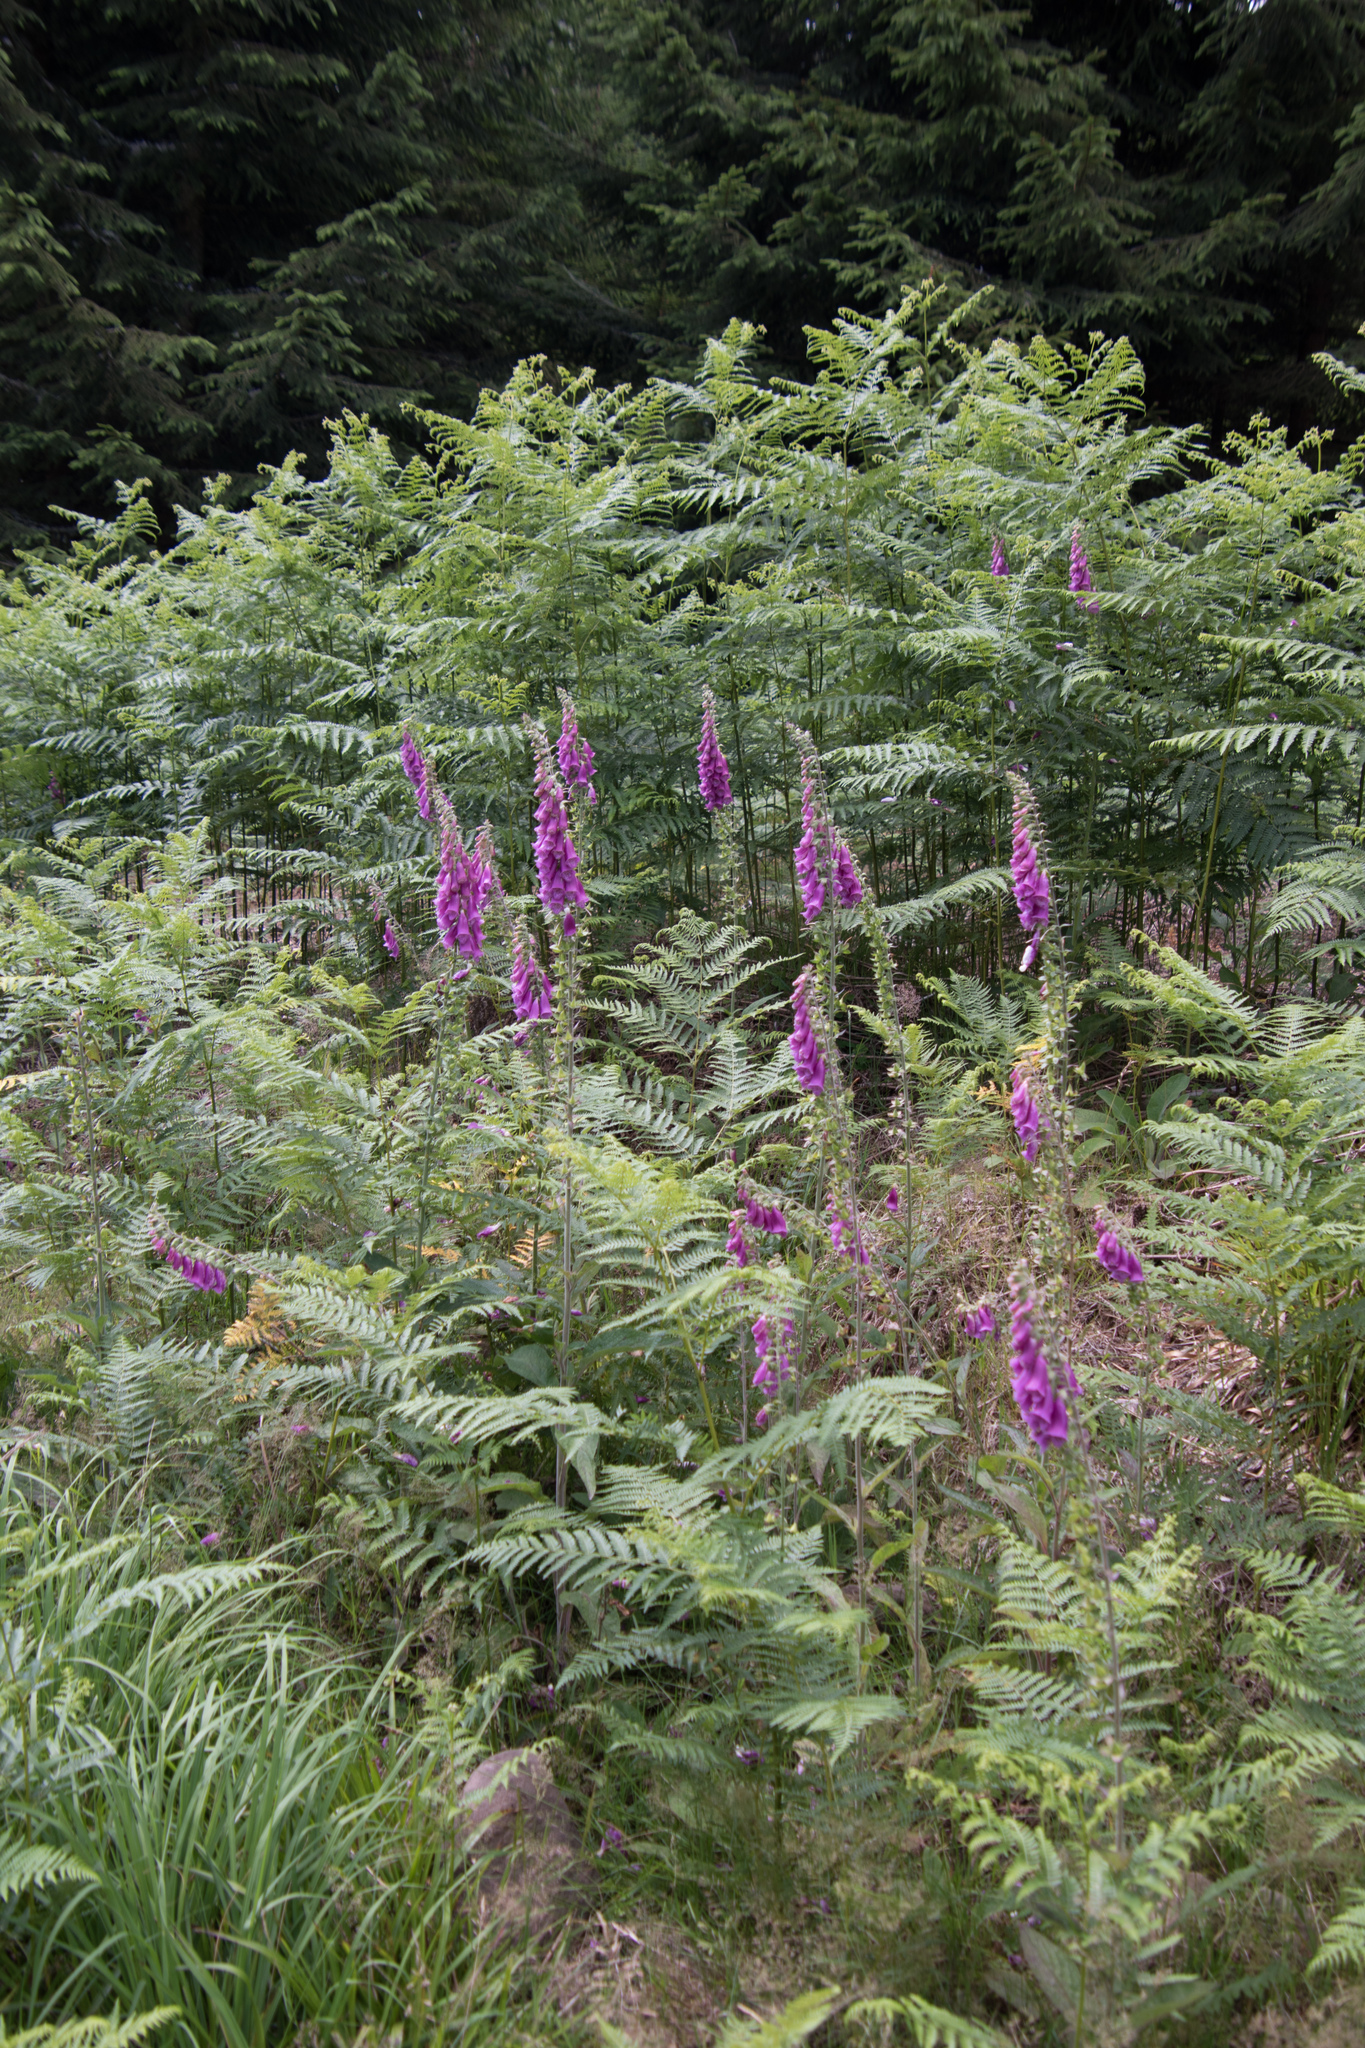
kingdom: Plantae
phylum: Tracheophyta
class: Magnoliopsida
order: Lamiales
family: Plantaginaceae
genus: Digitalis
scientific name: Digitalis purpurea
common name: Foxglove
